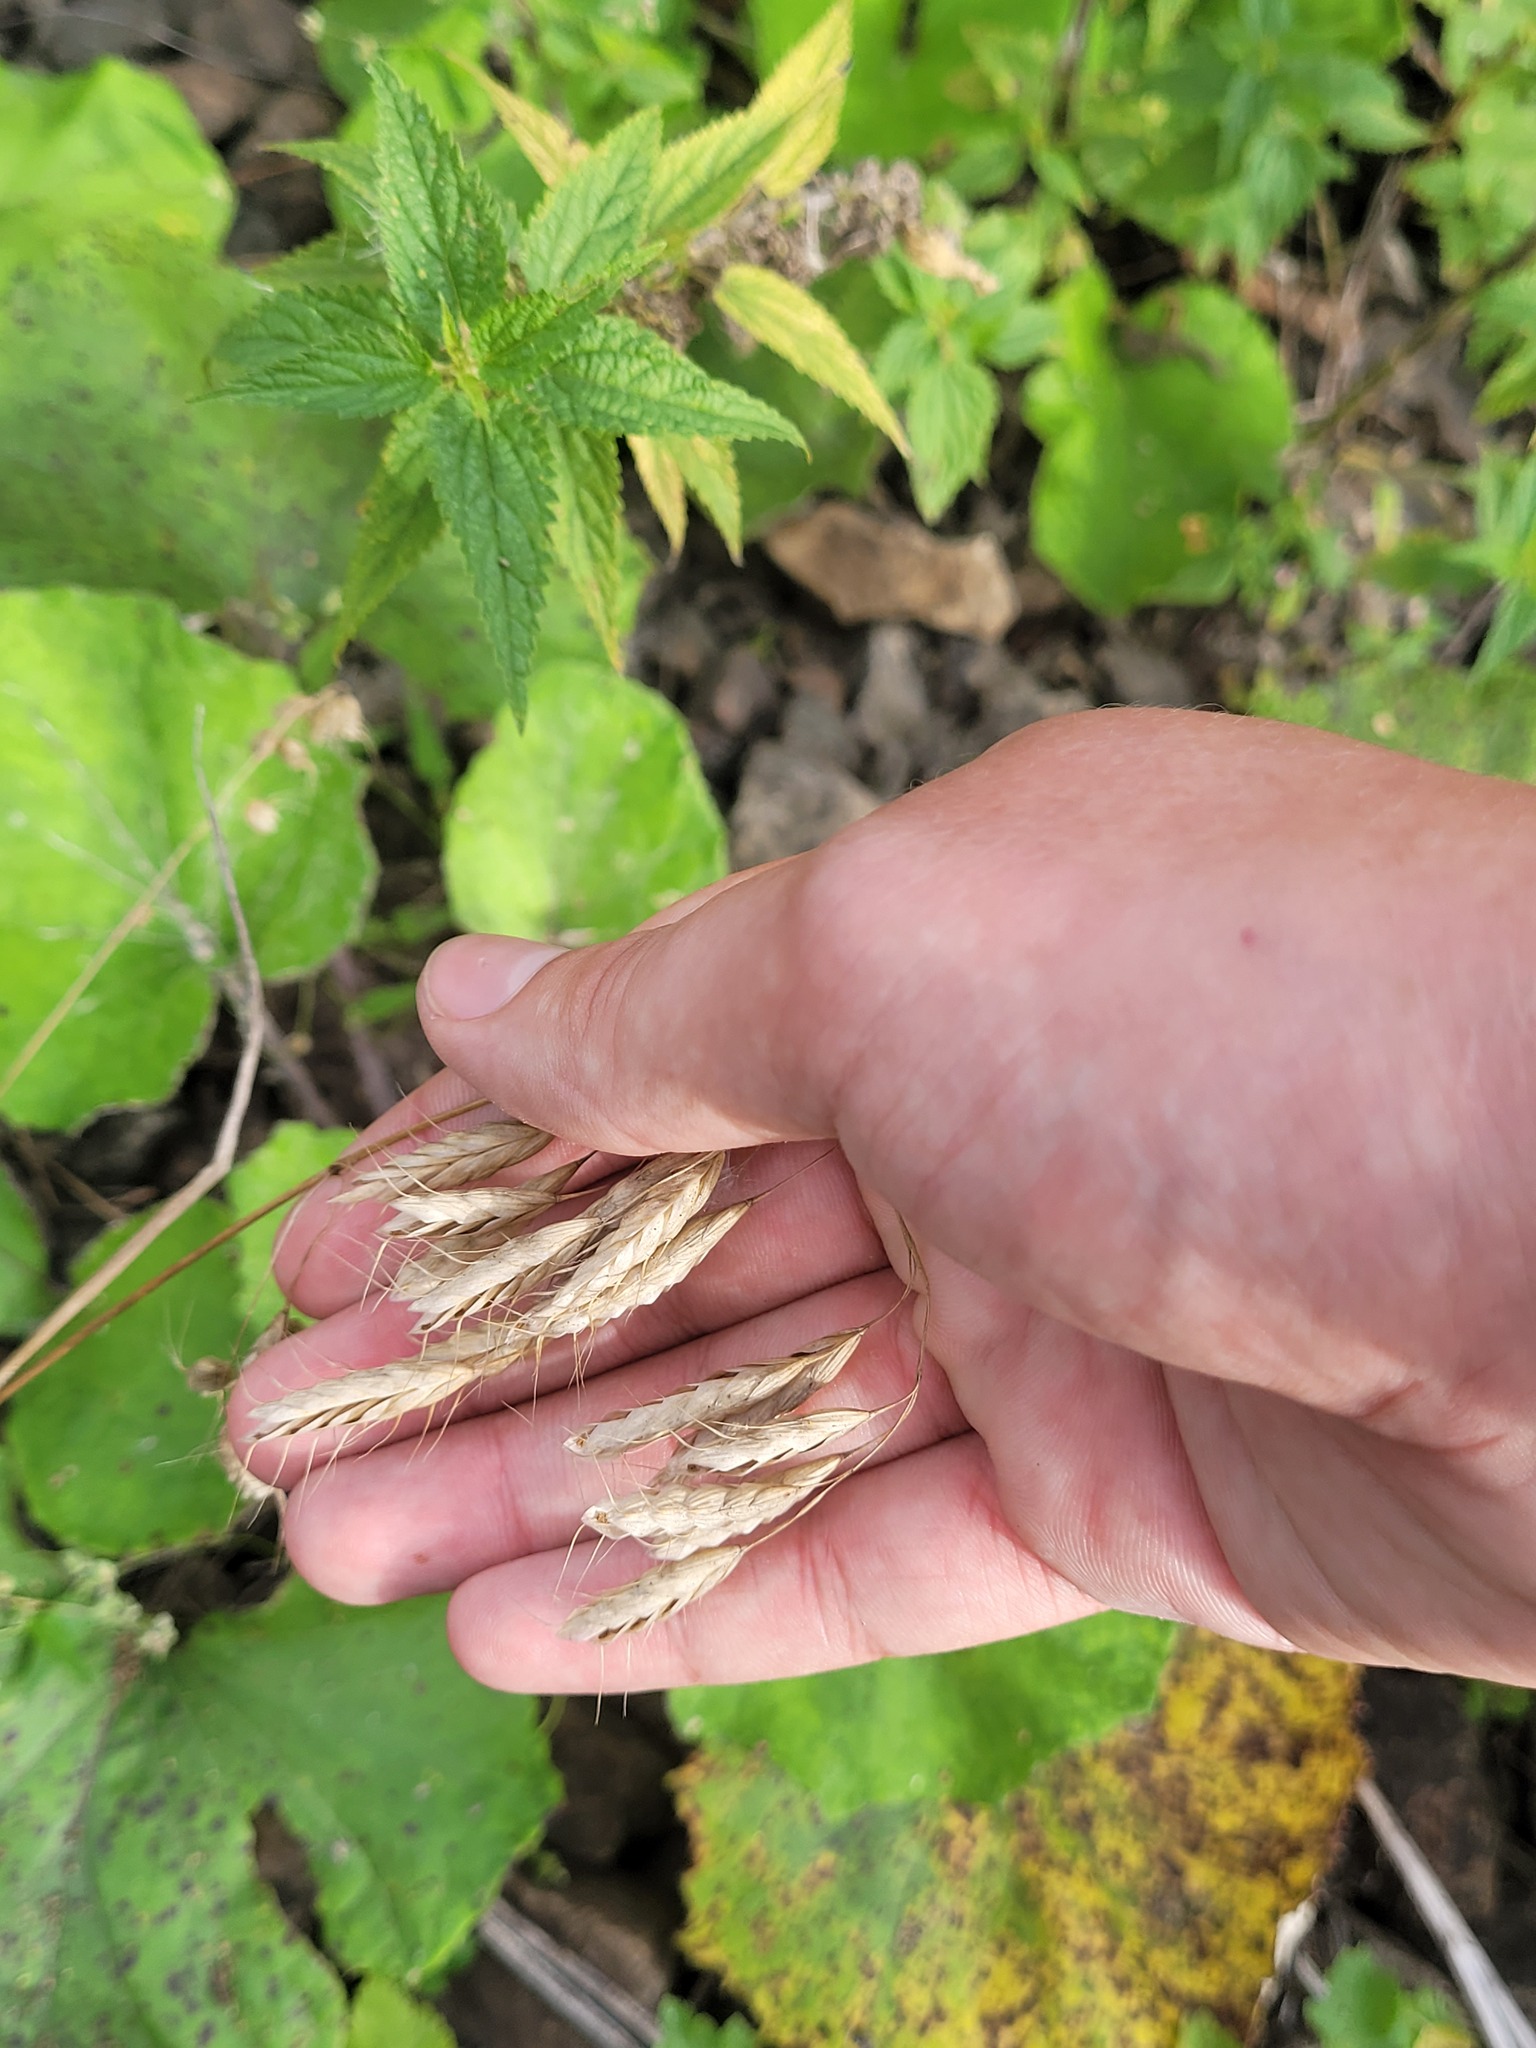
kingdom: Plantae
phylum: Tracheophyta
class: Liliopsida
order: Poales
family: Poaceae
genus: Bromus
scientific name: Bromus squarrosus
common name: Corn brome
